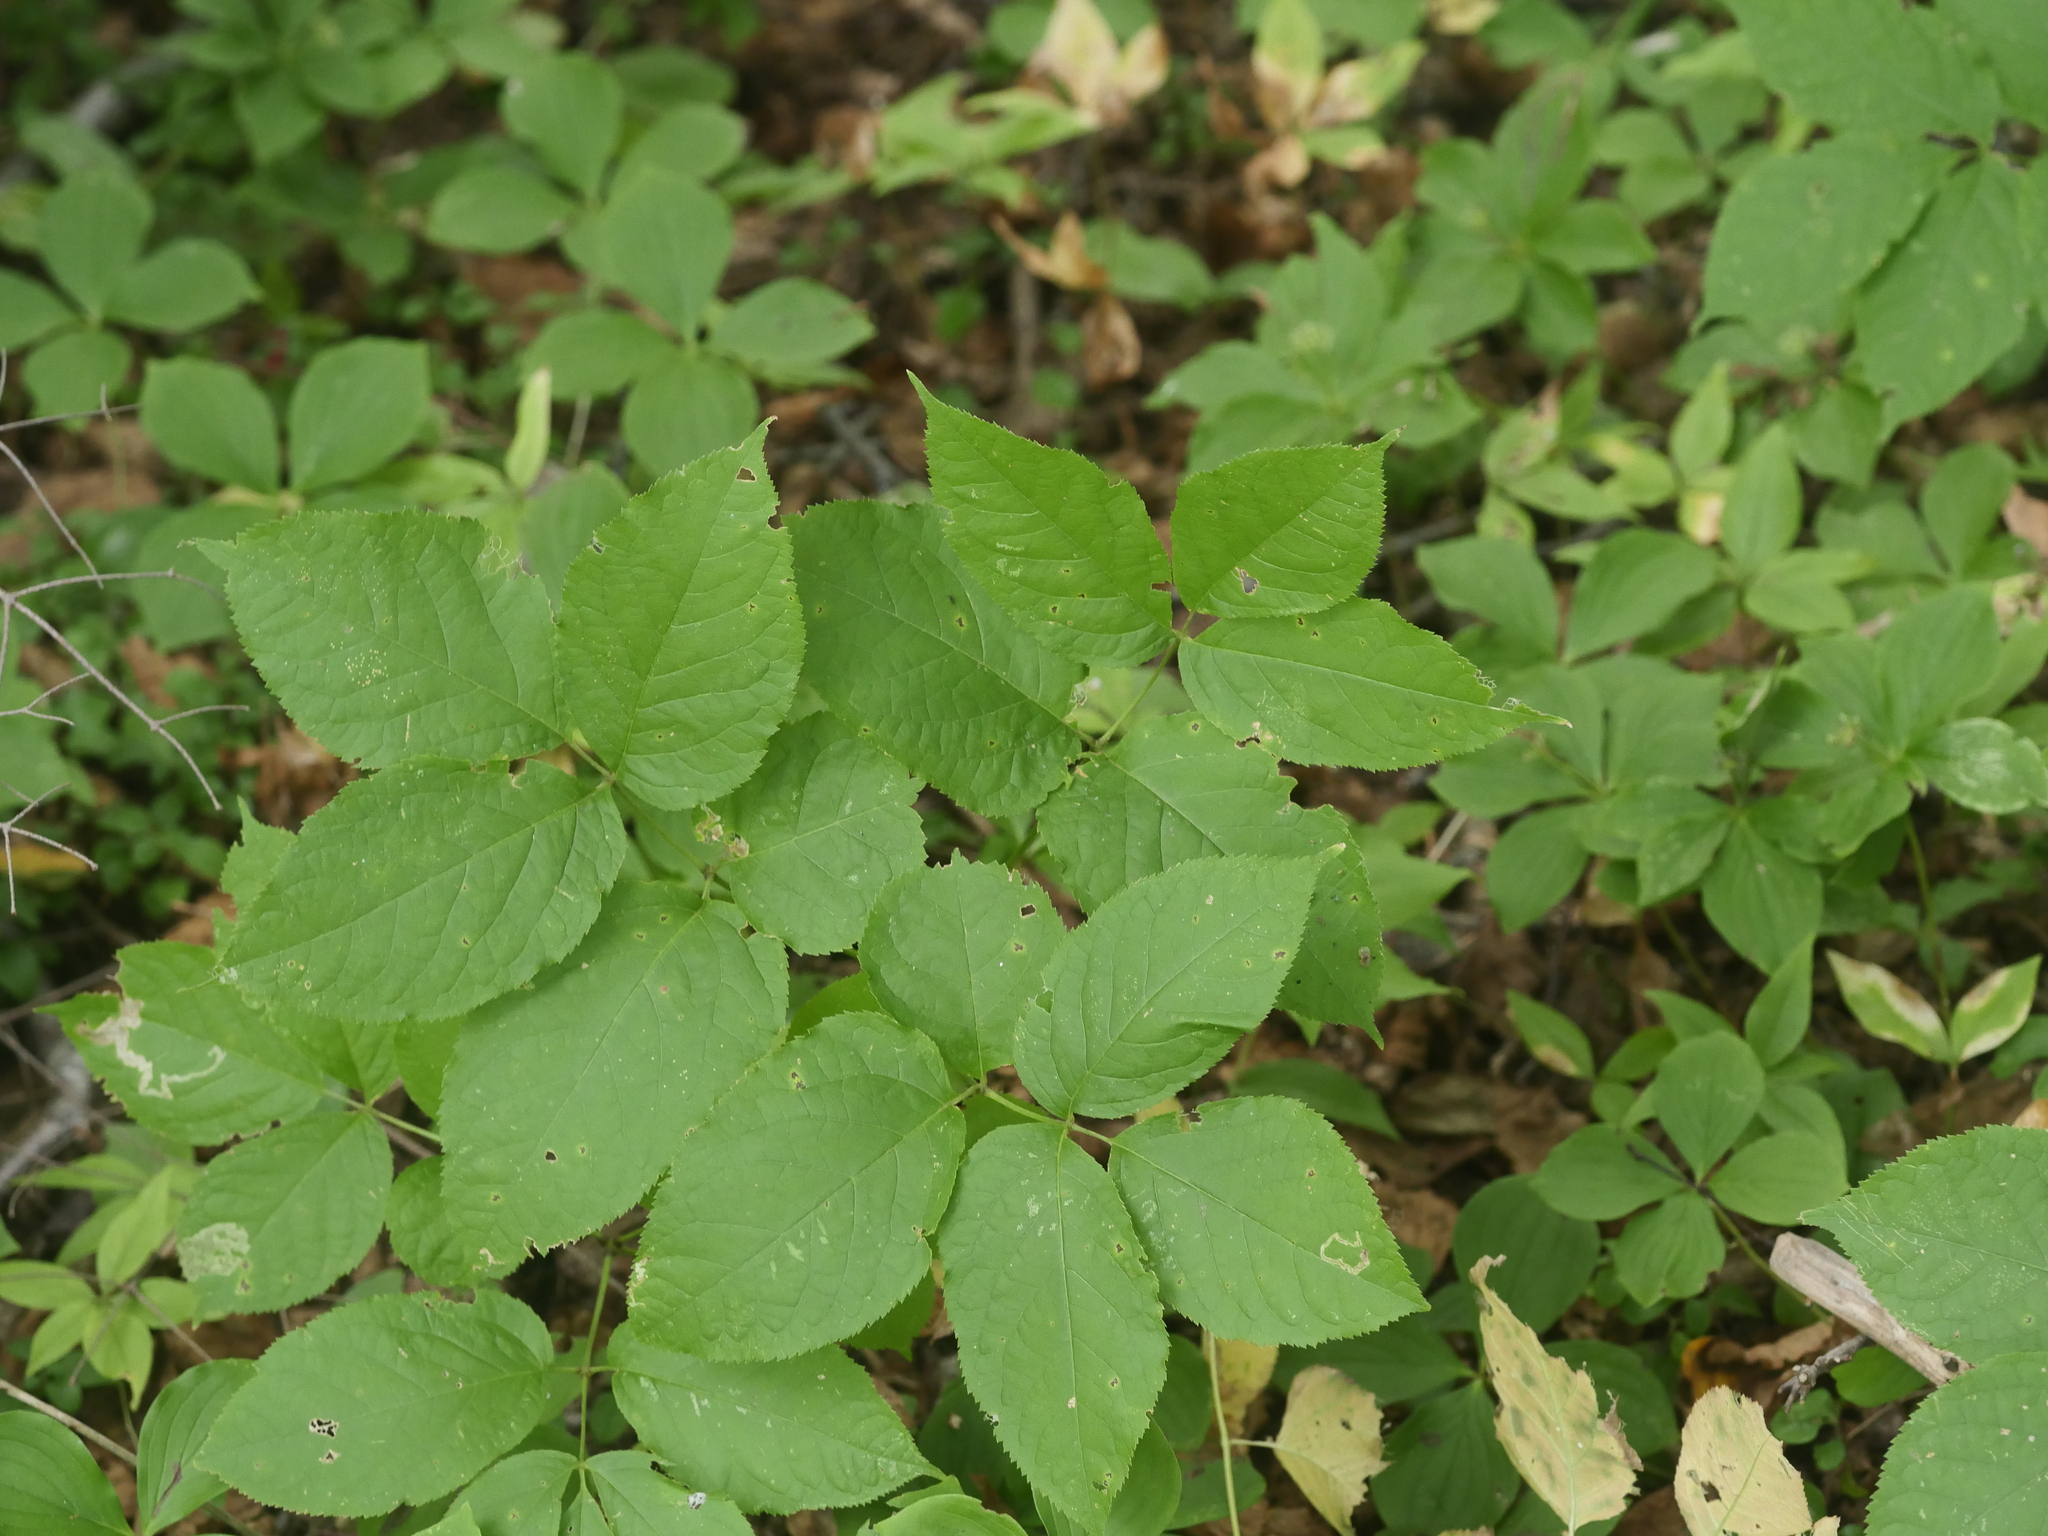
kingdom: Plantae
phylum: Tracheophyta
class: Magnoliopsida
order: Apiales
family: Araliaceae
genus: Aralia
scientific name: Aralia nudicaulis
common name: Wild sarsaparilla
